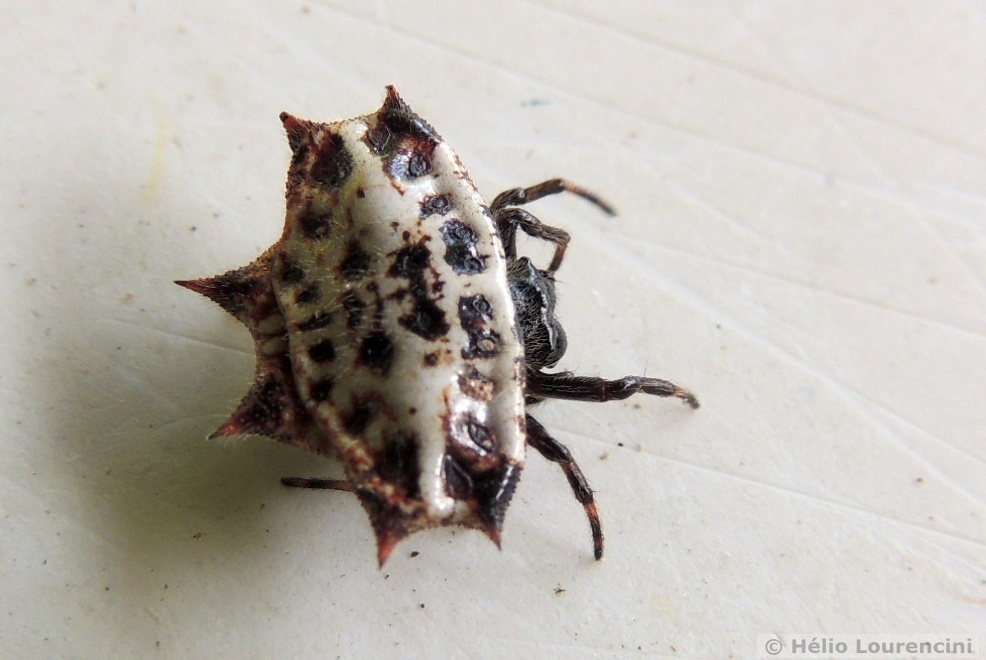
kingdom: Animalia
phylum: Arthropoda
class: Arachnida
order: Araneae
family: Araneidae
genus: Gasteracantha
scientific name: Gasteracantha cancriformis
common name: Orb weavers
